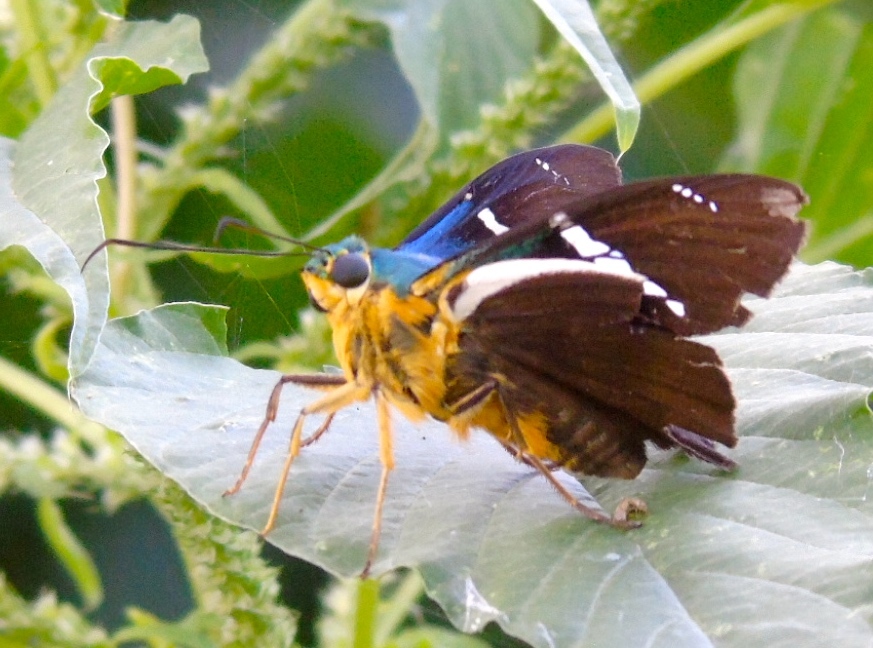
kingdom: Animalia
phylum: Arthropoda
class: Insecta
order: Lepidoptera
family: Hesperiidae
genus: Astraptes
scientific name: Astraptes fulgerator
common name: Two-barred flasher
